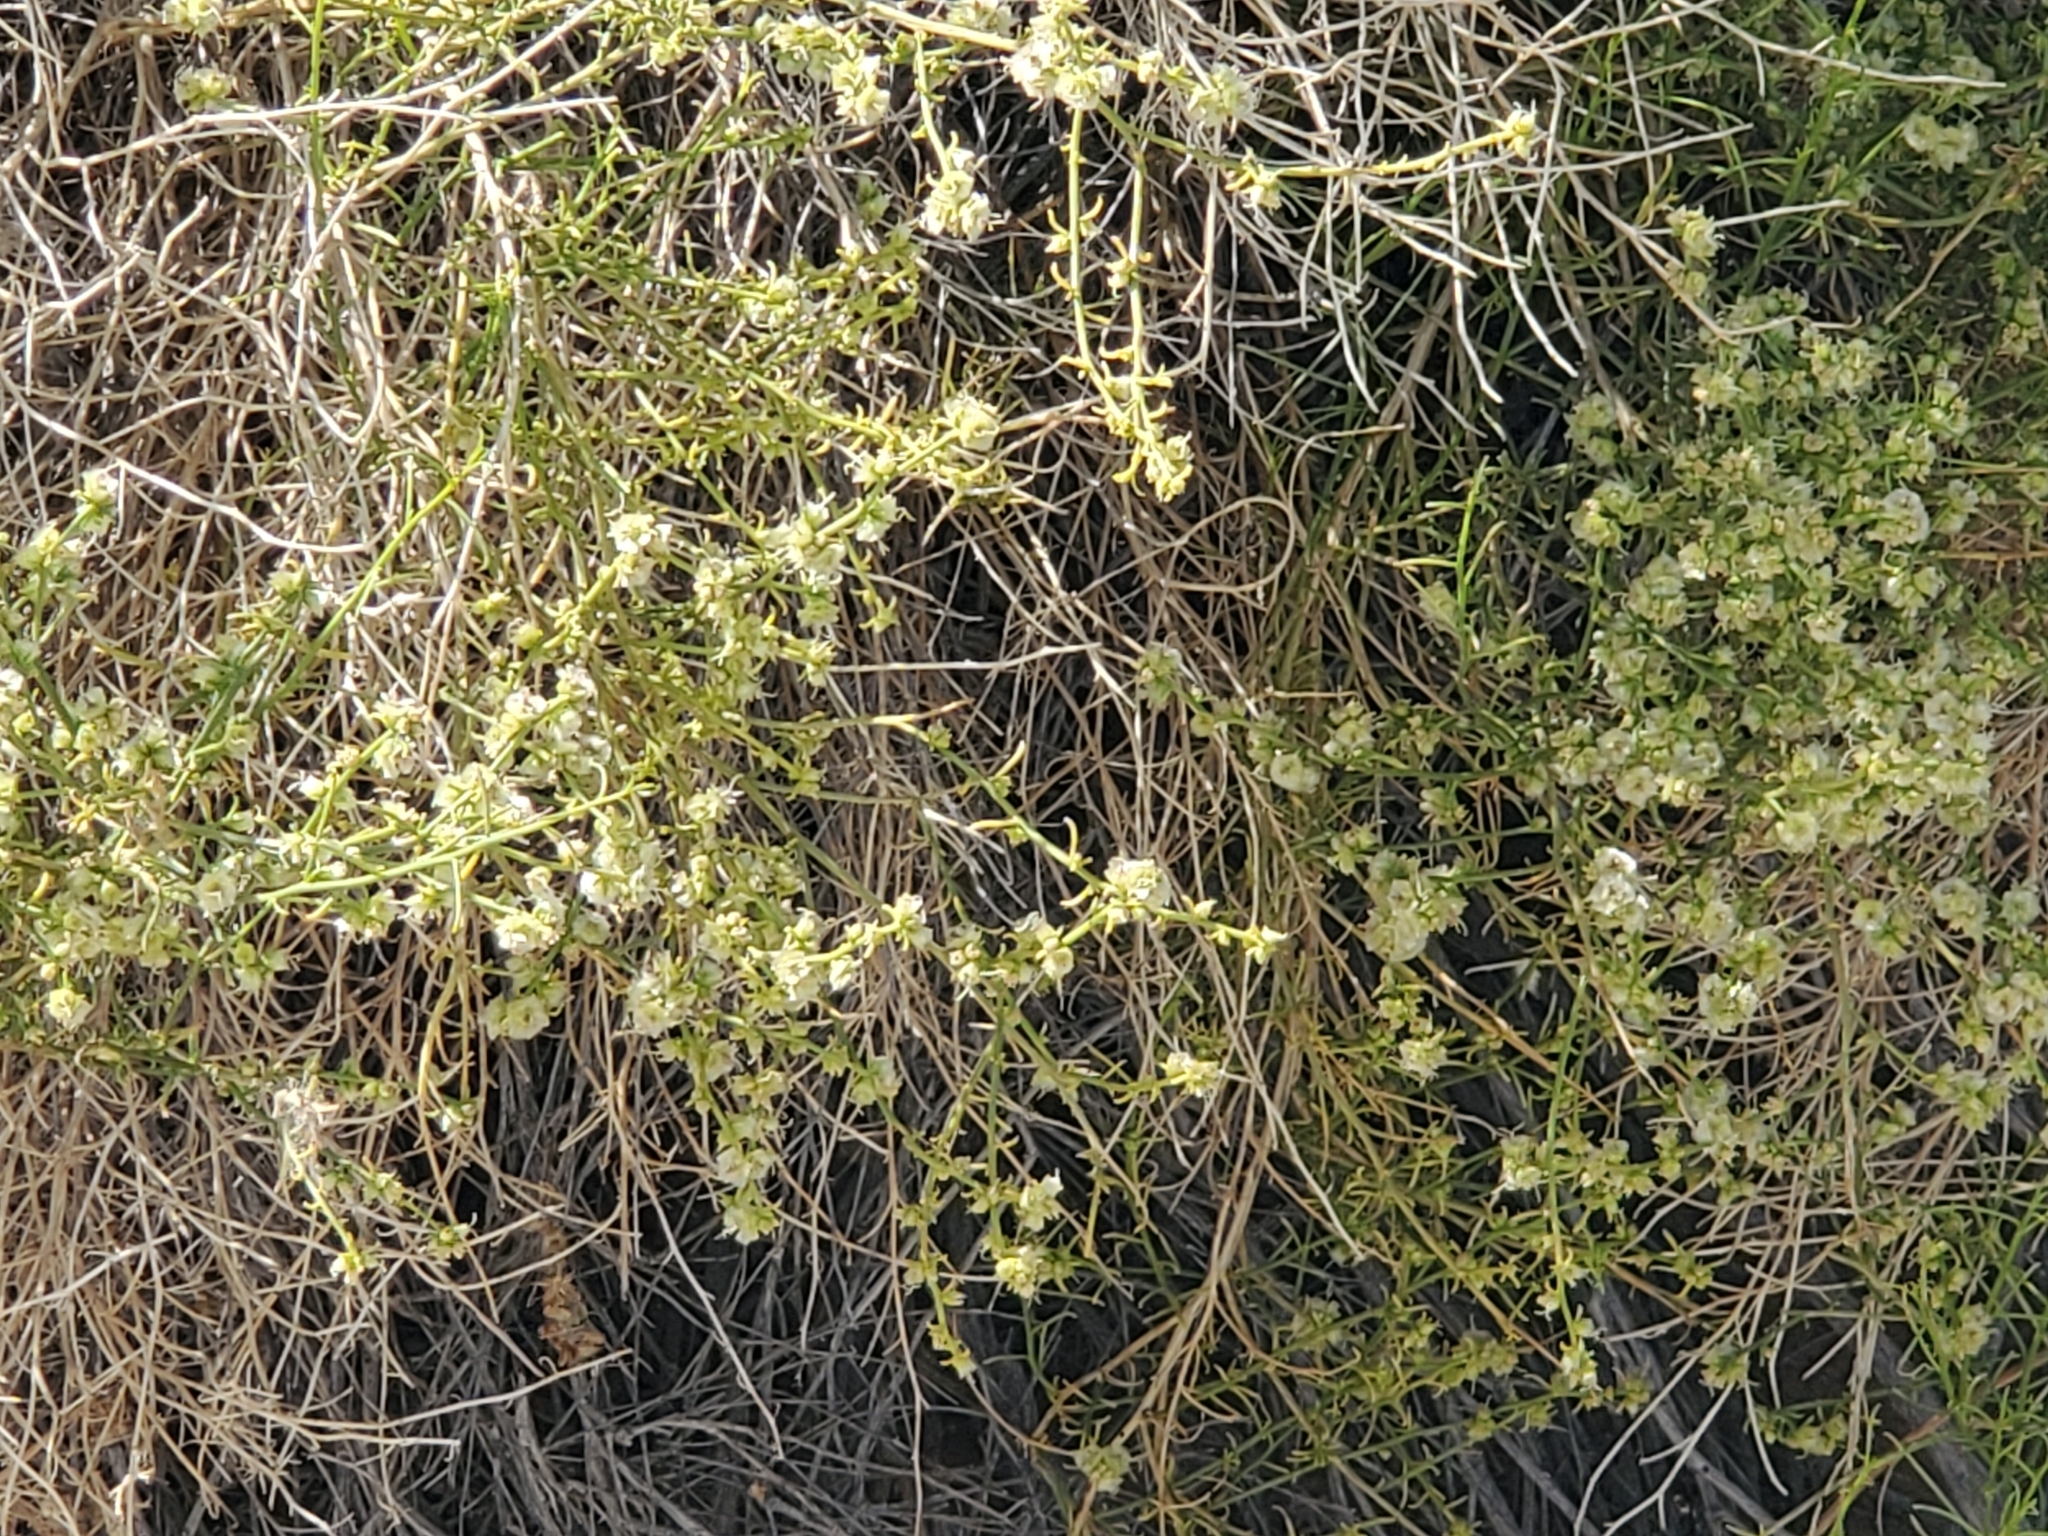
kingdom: Plantae
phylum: Tracheophyta
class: Magnoliopsida
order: Asterales
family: Asteraceae
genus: Ambrosia
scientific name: Ambrosia salsola
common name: Burrobrush
